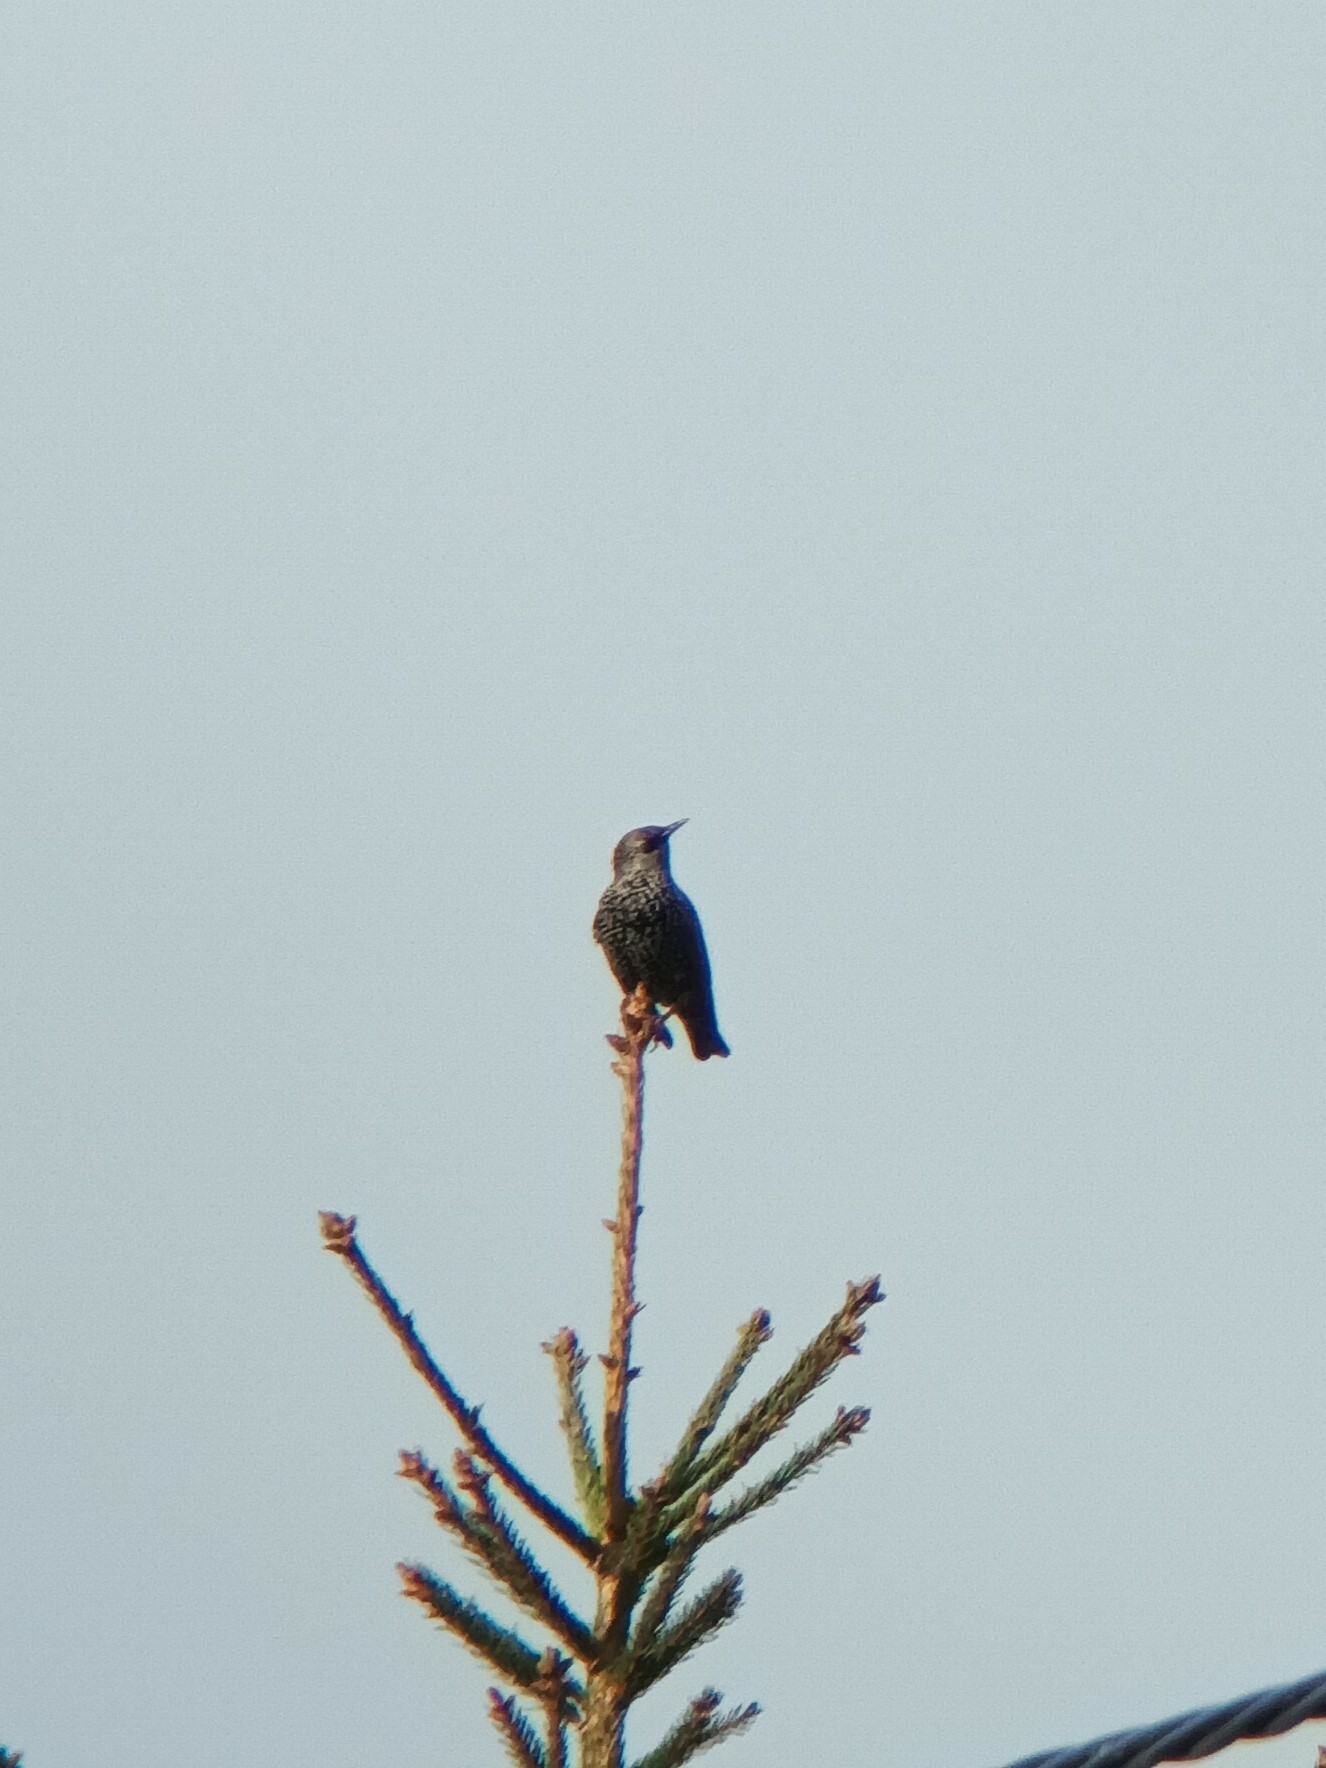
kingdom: Animalia
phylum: Chordata
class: Aves
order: Passeriformes
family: Sturnidae
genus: Sturnus
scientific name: Sturnus vulgaris
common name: Common starling
